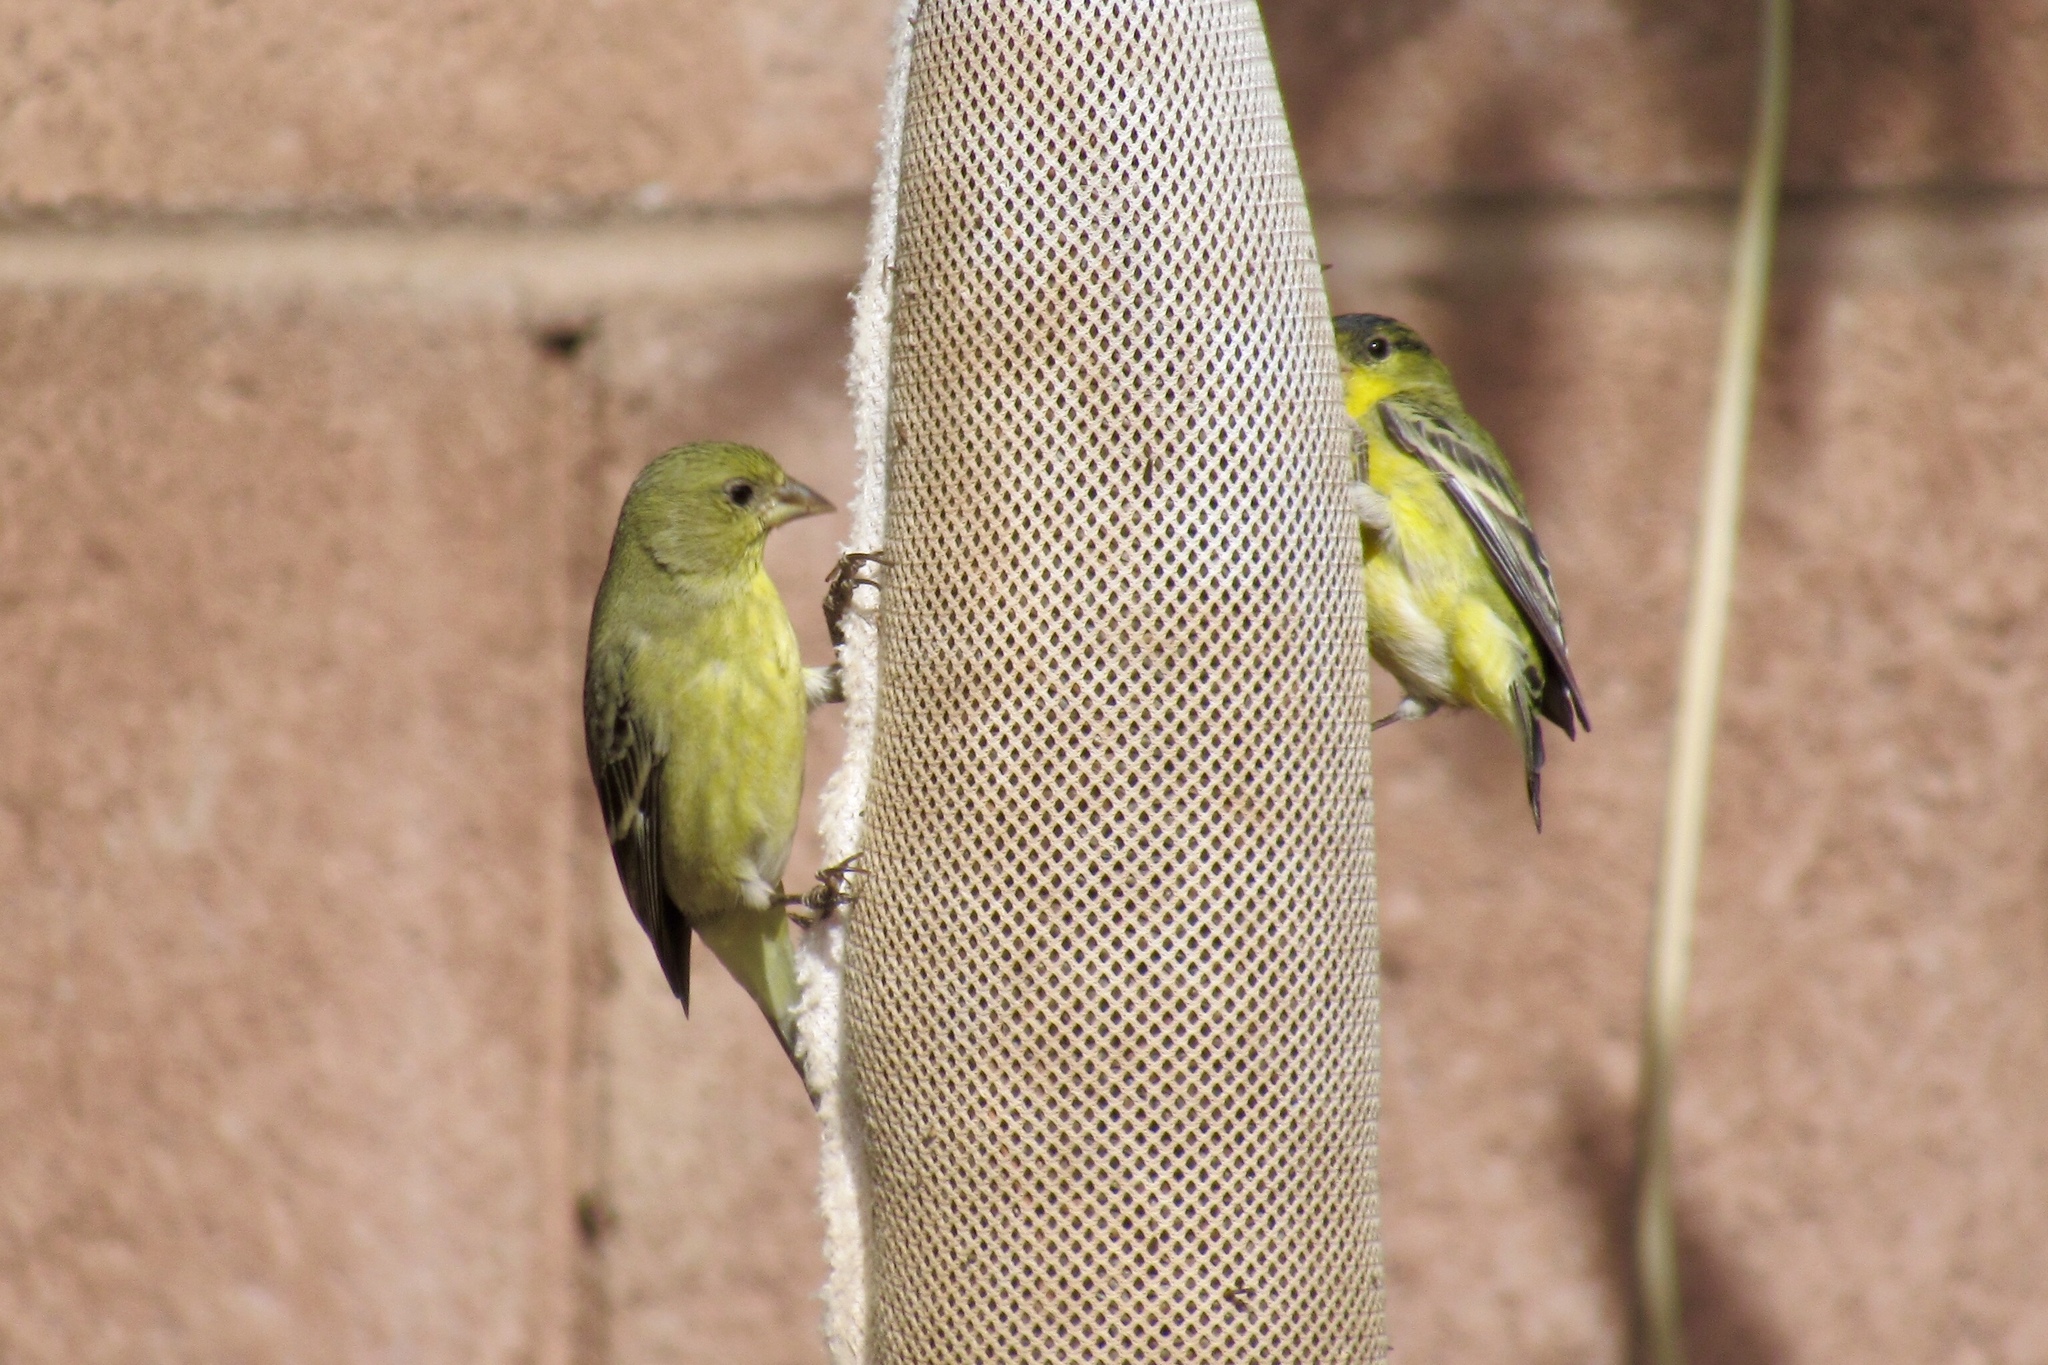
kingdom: Animalia
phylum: Chordata
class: Aves
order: Passeriformes
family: Fringillidae
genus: Spinus
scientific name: Spinus psaltria
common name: Lesser goldfinch
